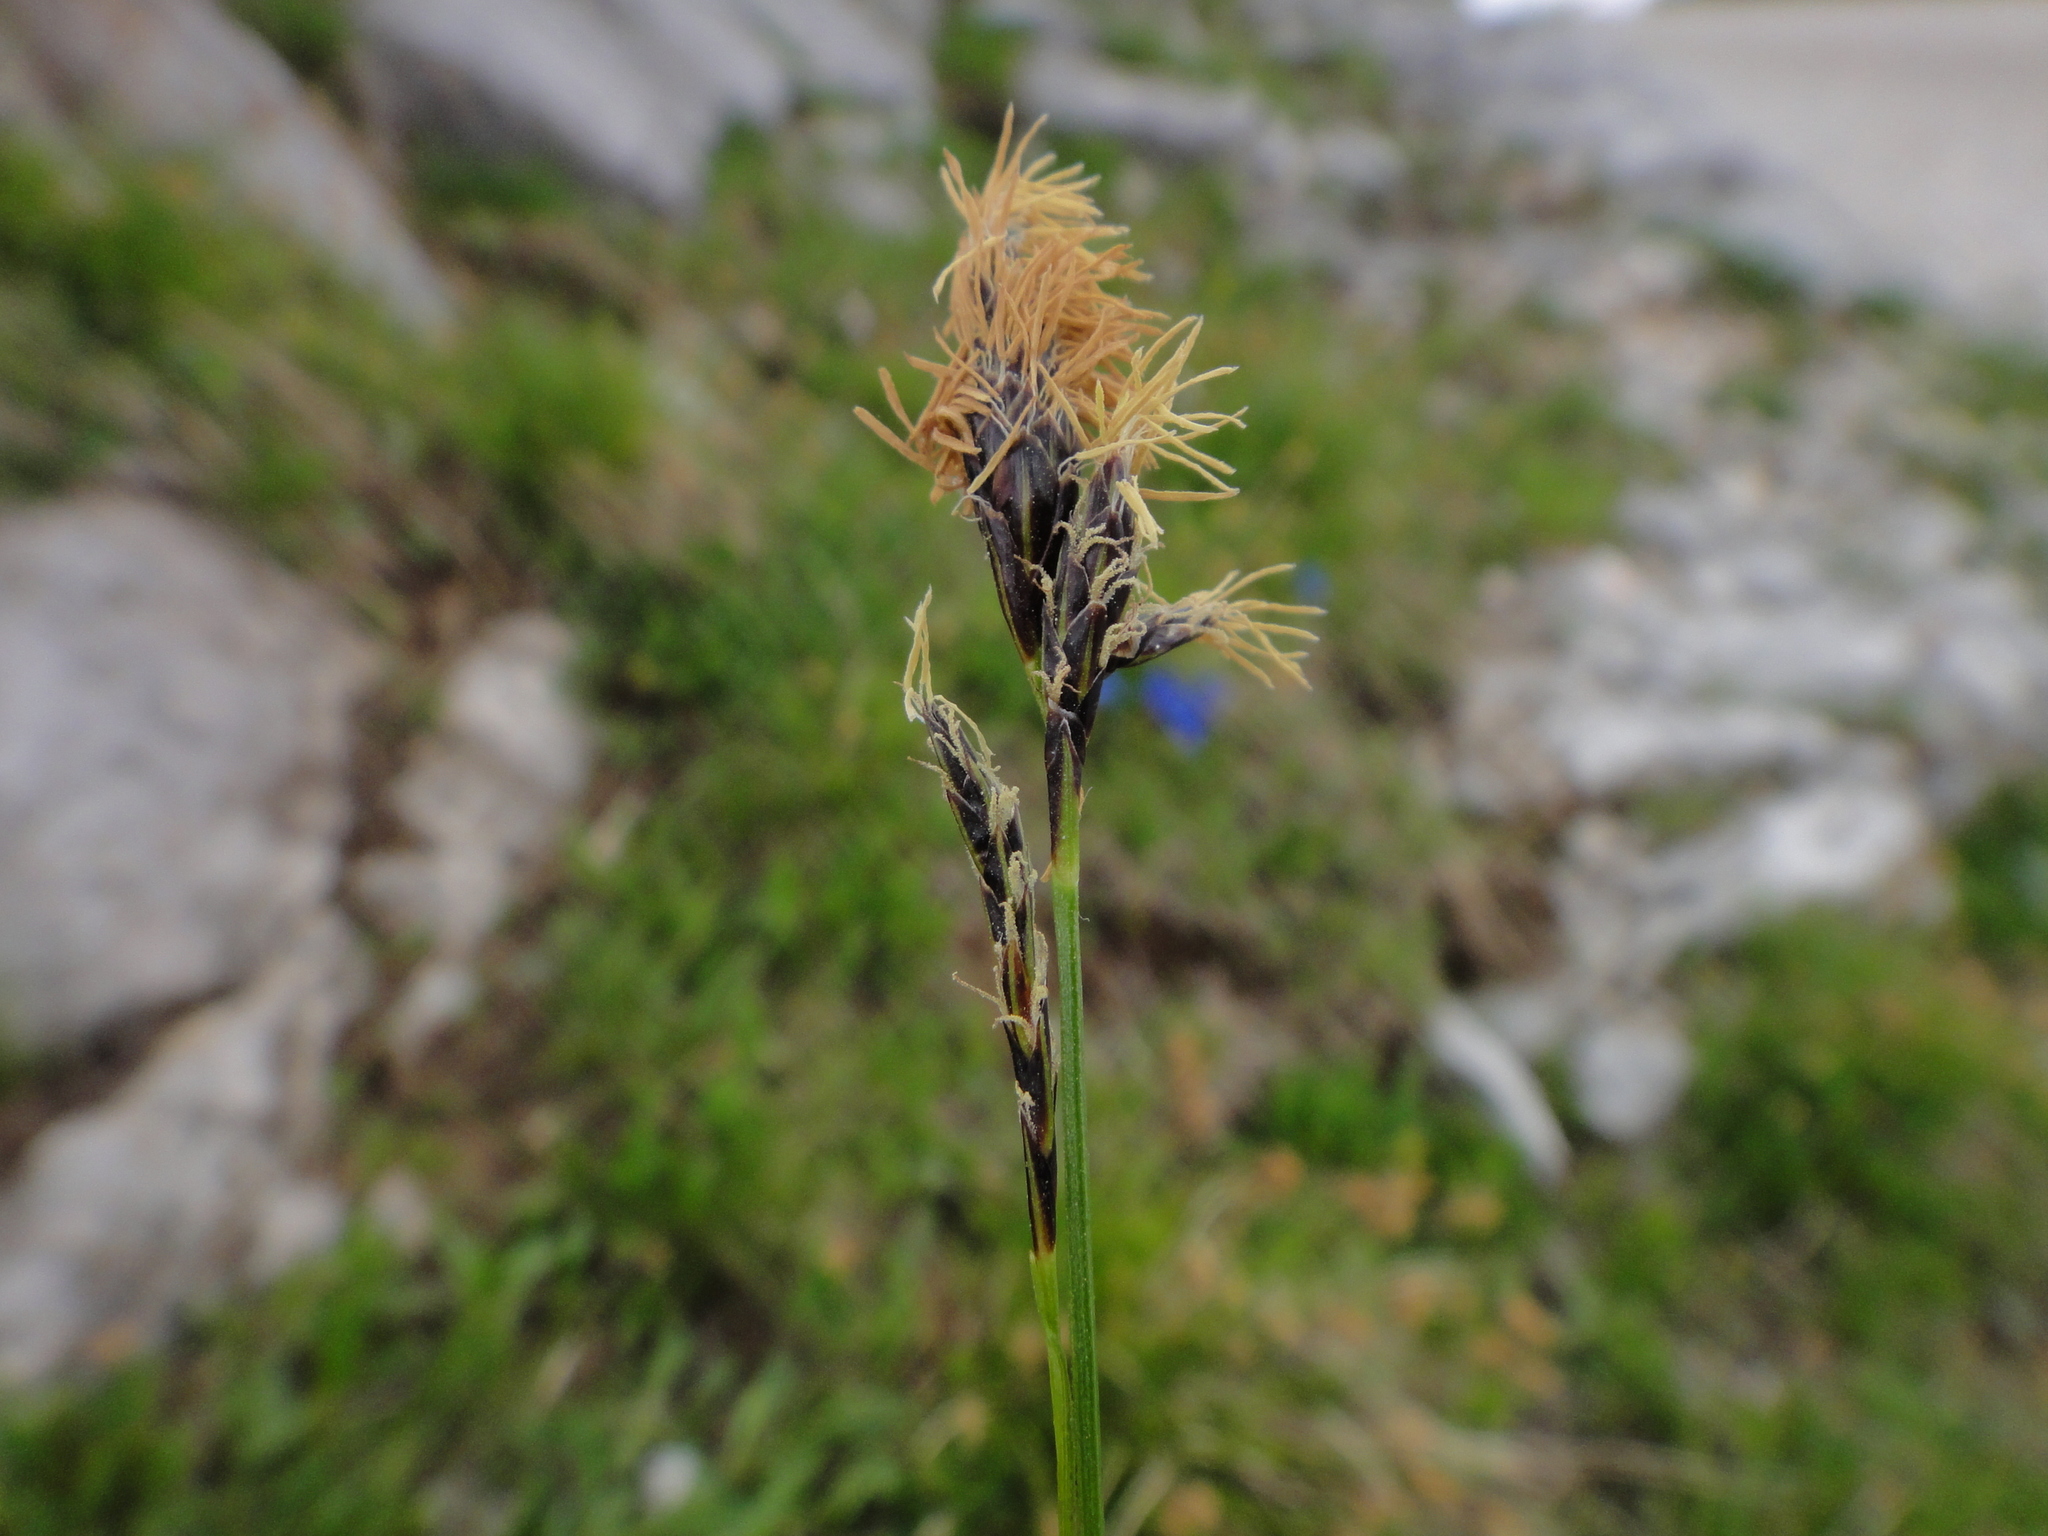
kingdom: Plantae
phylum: Tracheophyta
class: Liliopsida
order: Poales
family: Cyperaceae
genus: Carex
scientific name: Carex sempervirens
